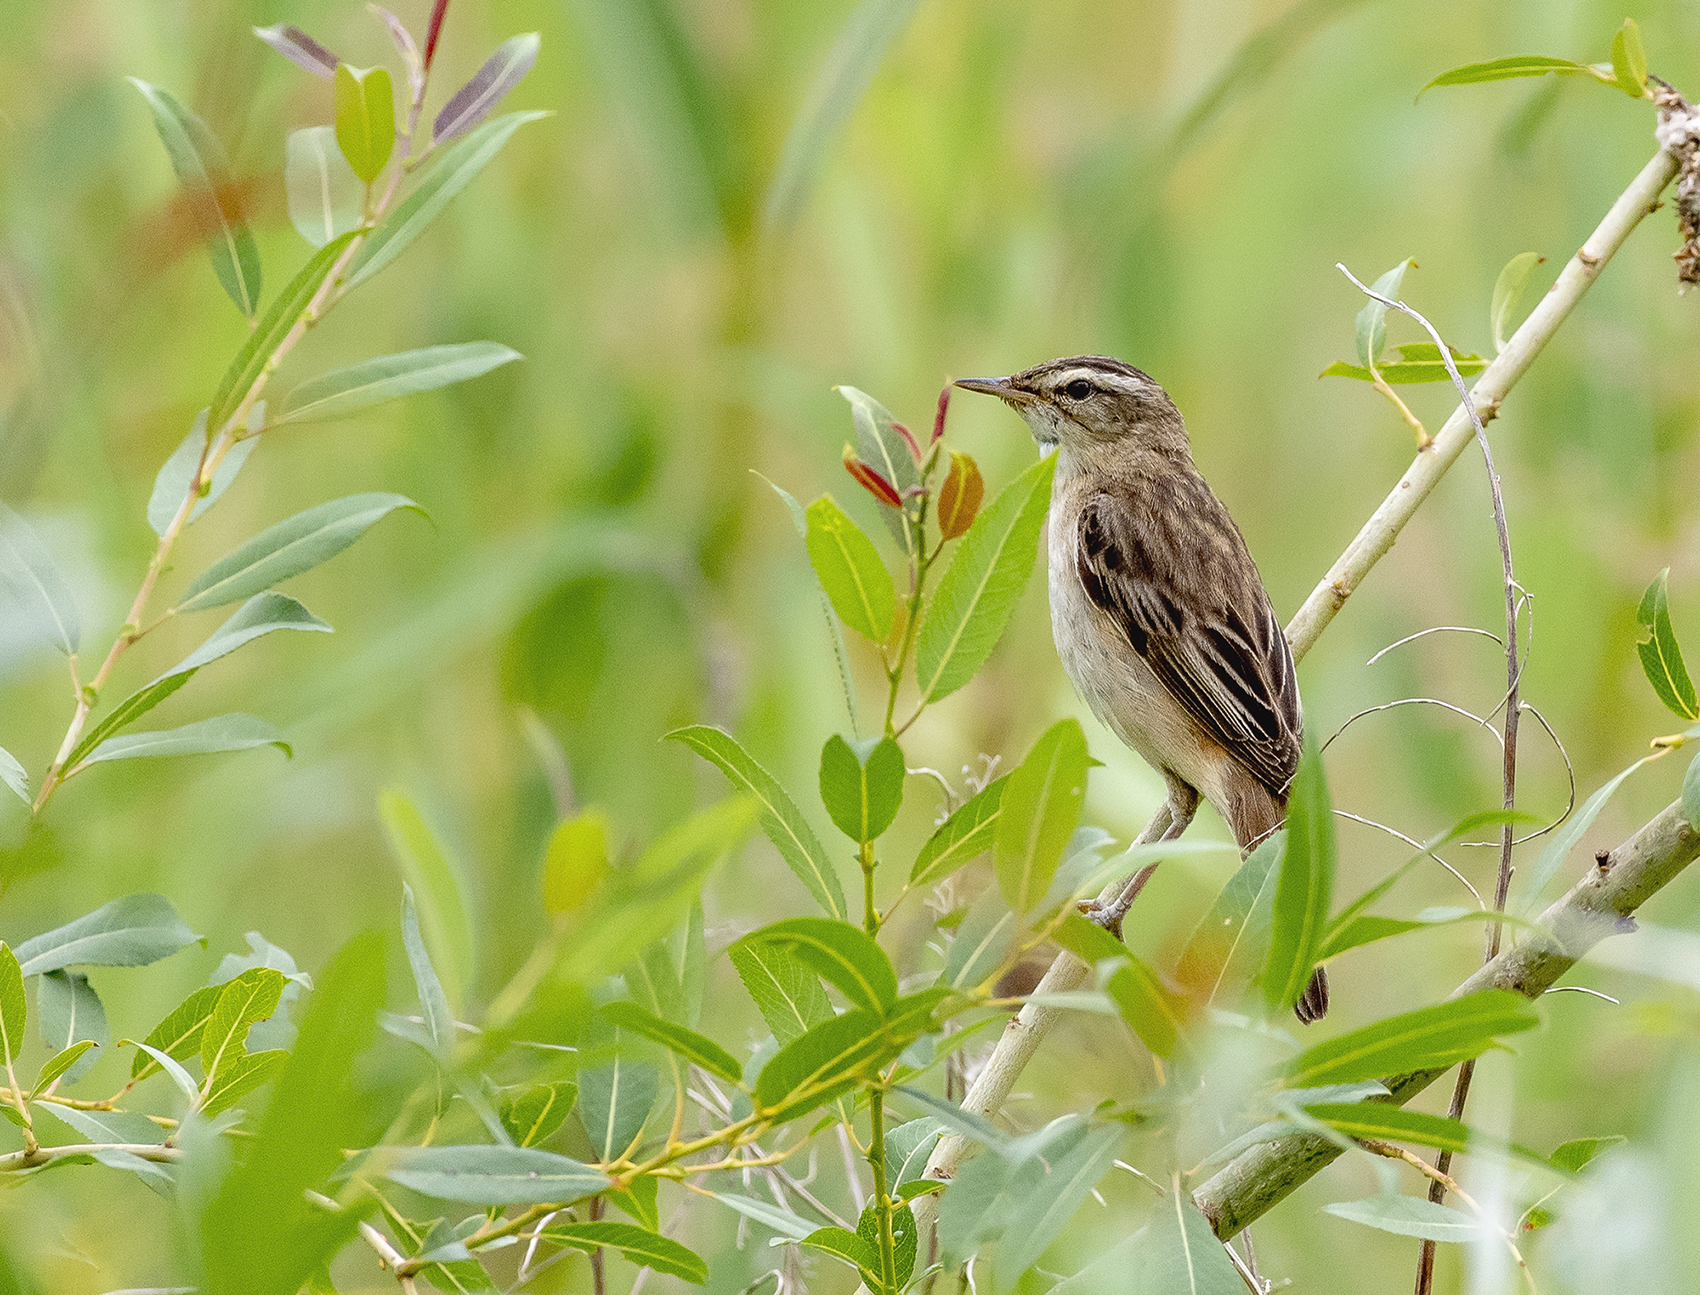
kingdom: Animalia
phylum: Chordata
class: Aves
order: Passeriformes
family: Acrocephalidae
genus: Acrocephalus
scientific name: Acrocephalus schoenobaenus
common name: Sedge warbler
